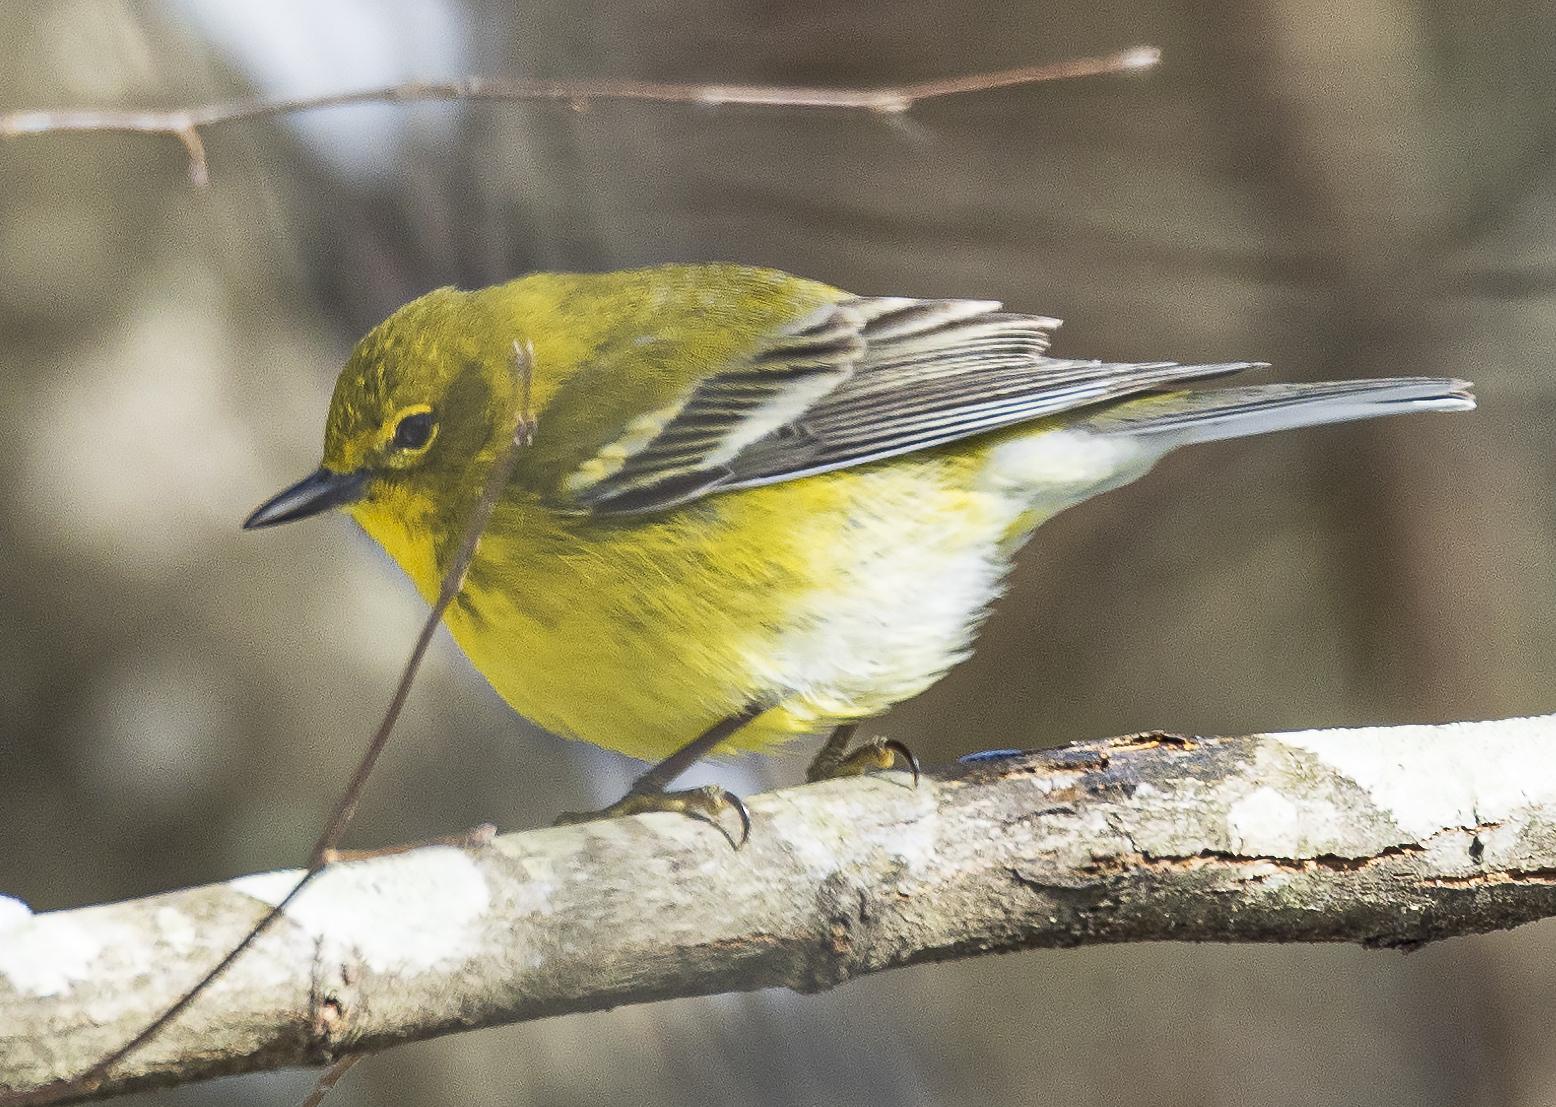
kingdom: Animalia
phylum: Chordata
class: Aves
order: Passeriformes
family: Parulidae
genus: Setophaga
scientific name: Setophaga pinus
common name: Pine warbler
